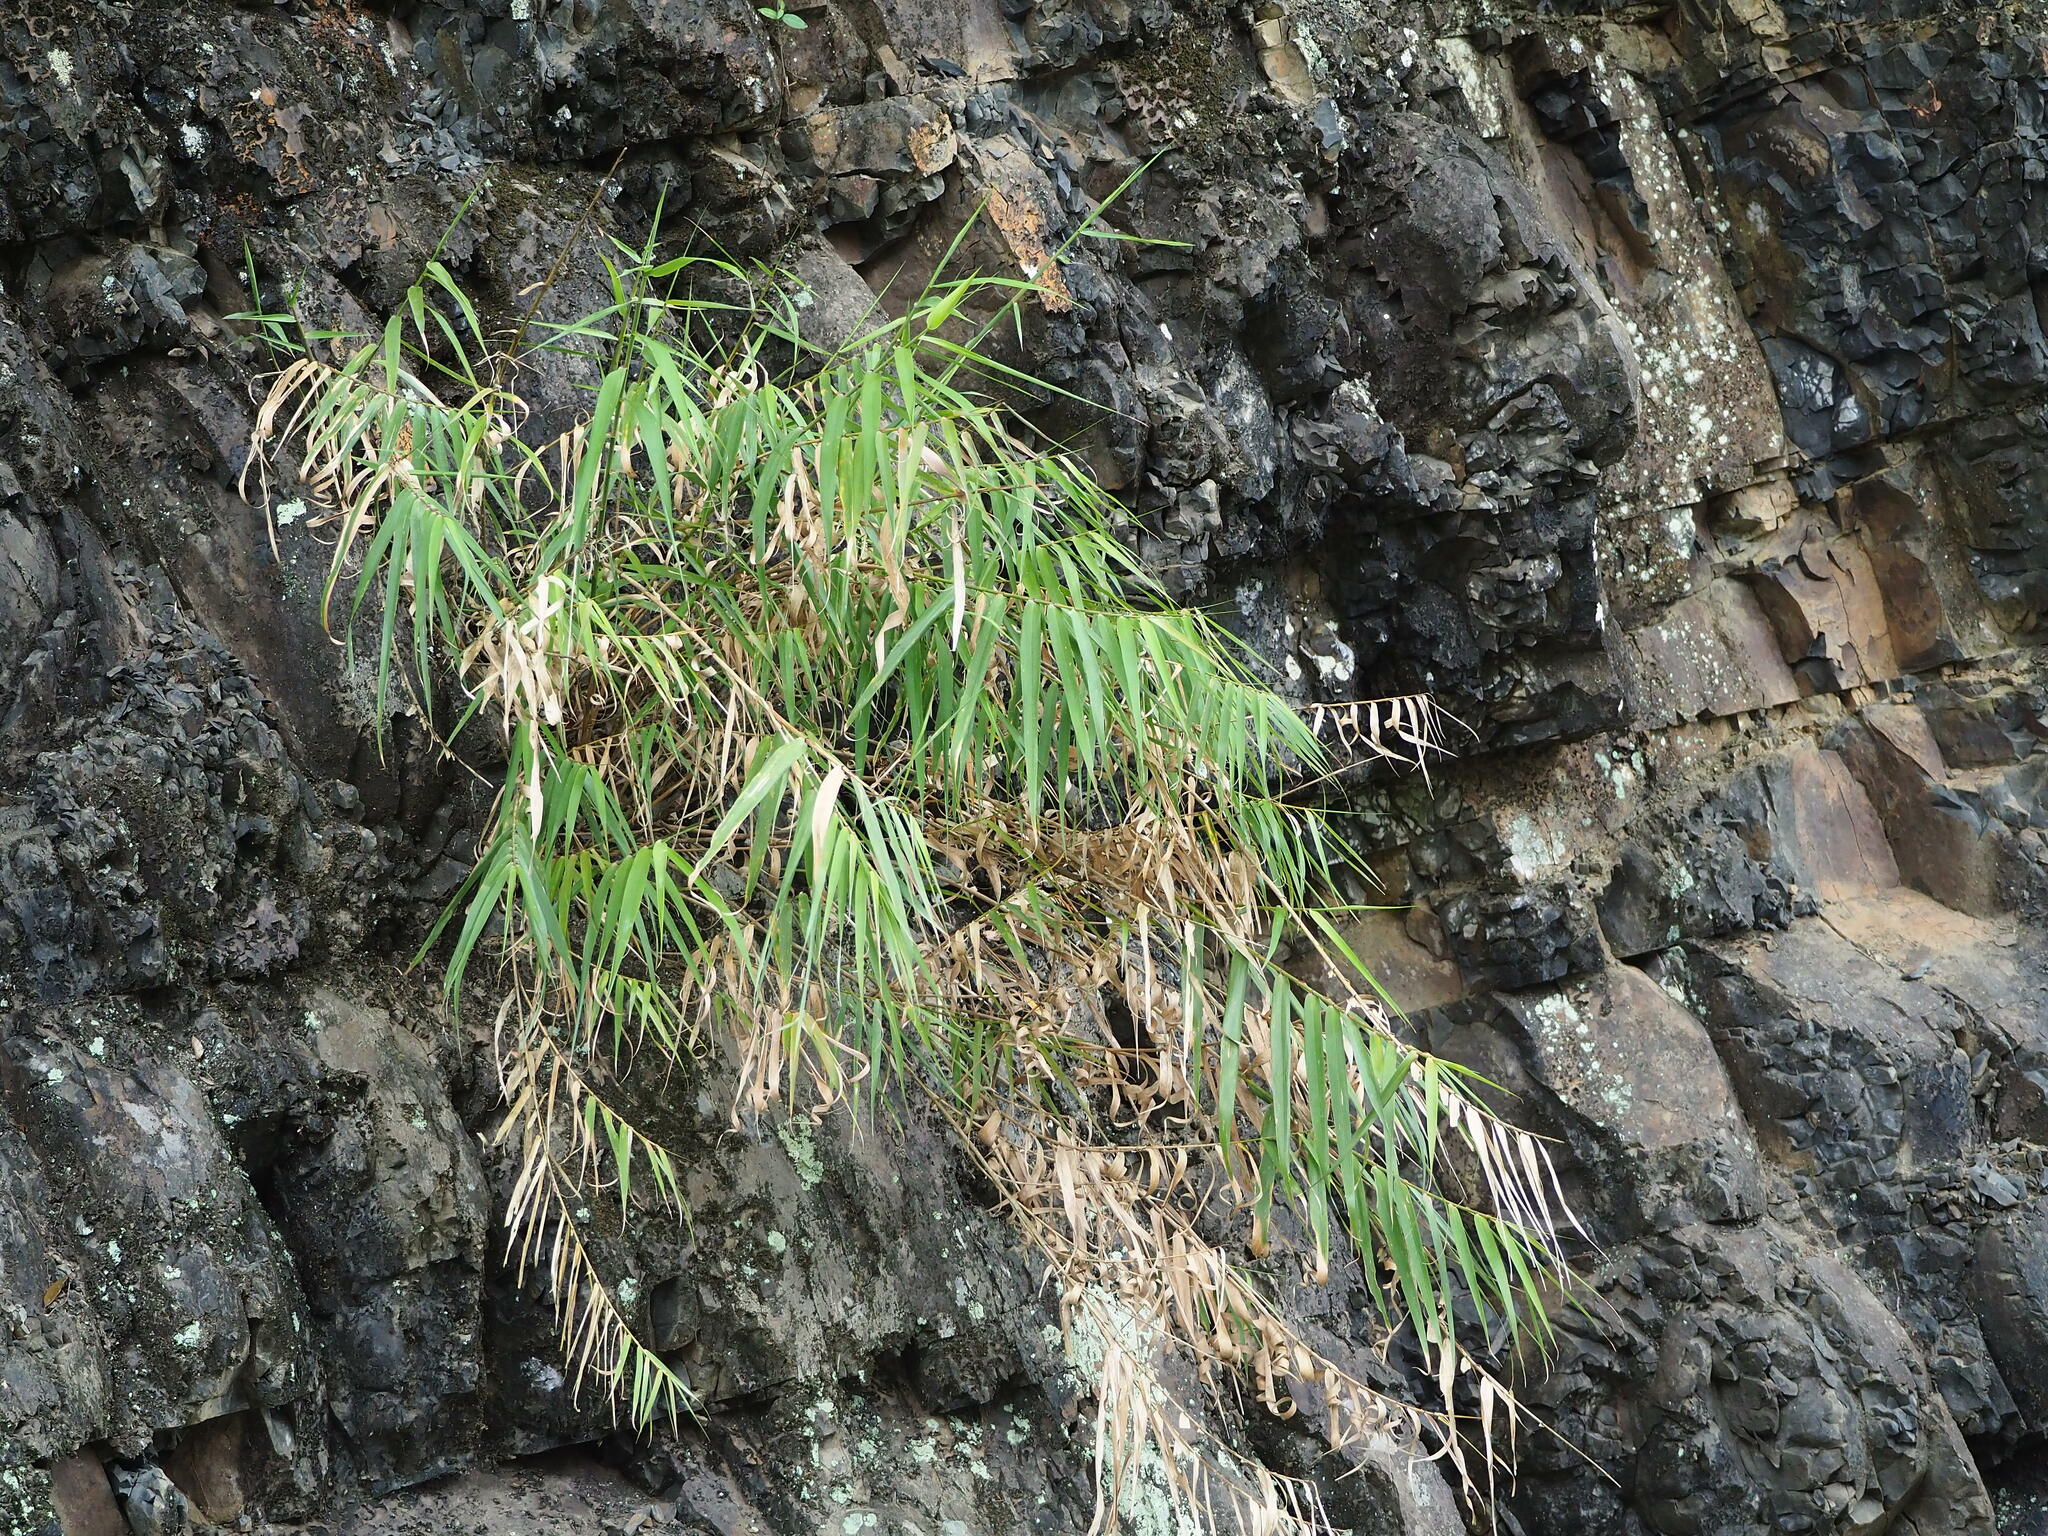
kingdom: Plantae
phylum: Tracheophyta
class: Liliopsida
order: Poales
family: Poaceae
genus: Arundo
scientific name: Arundo formosana
